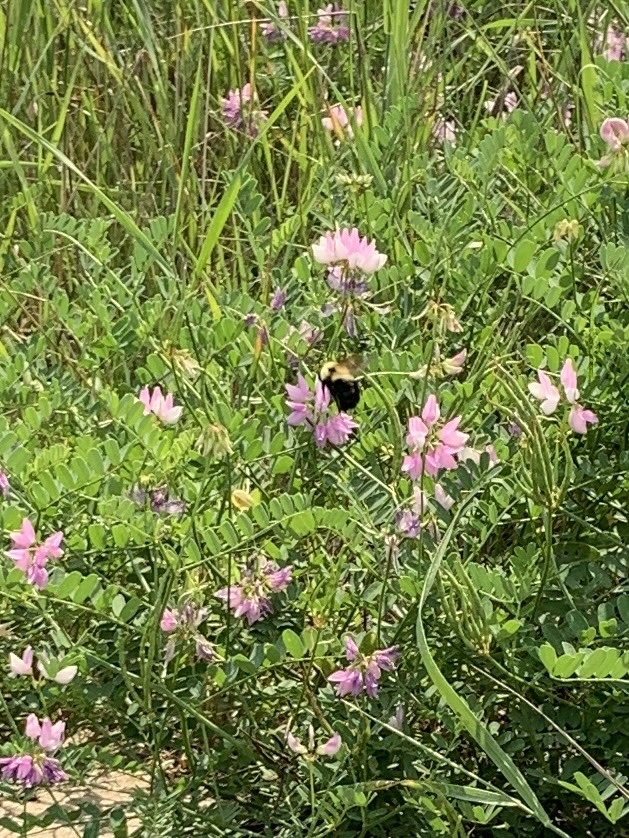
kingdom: Animalia
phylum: Arthropoda
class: Insecta
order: Hymenoptera
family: Apidae
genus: Bombus
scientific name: Bombus bimaculatus
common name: Two-spotted bumble bee
